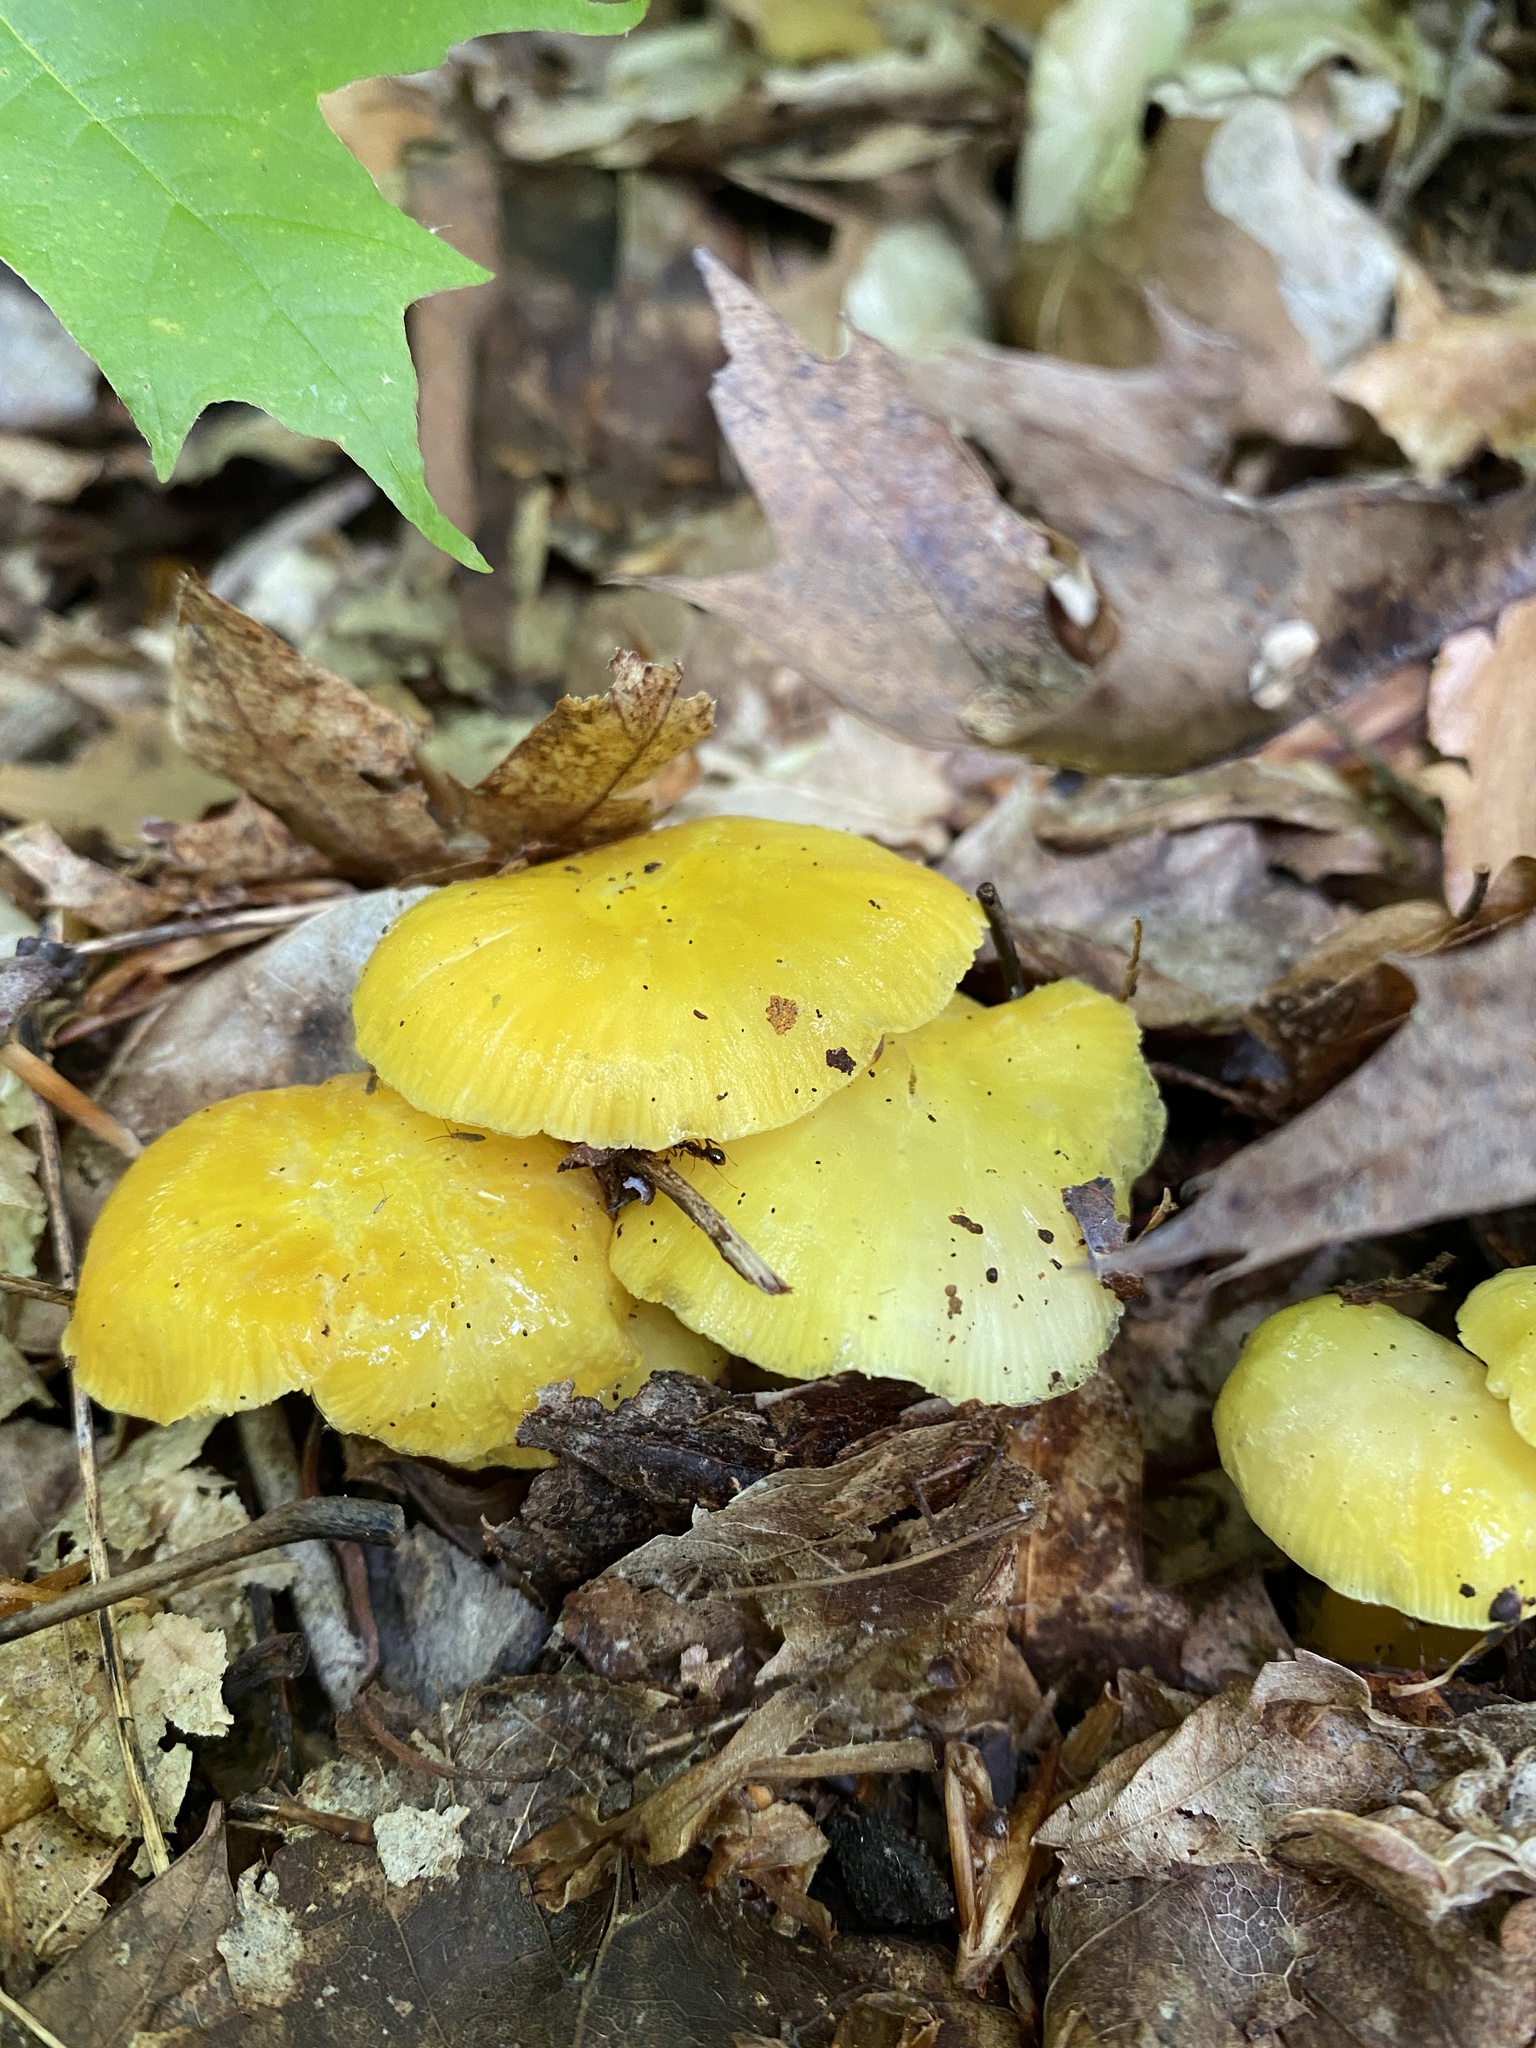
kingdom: Fungi
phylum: Basidiomycota
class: Agaricomycetes
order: Agaricales
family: Hygrophoraceae
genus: Hygrocybe
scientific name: Hygrocybe flavescens
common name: Golden waxy cap
